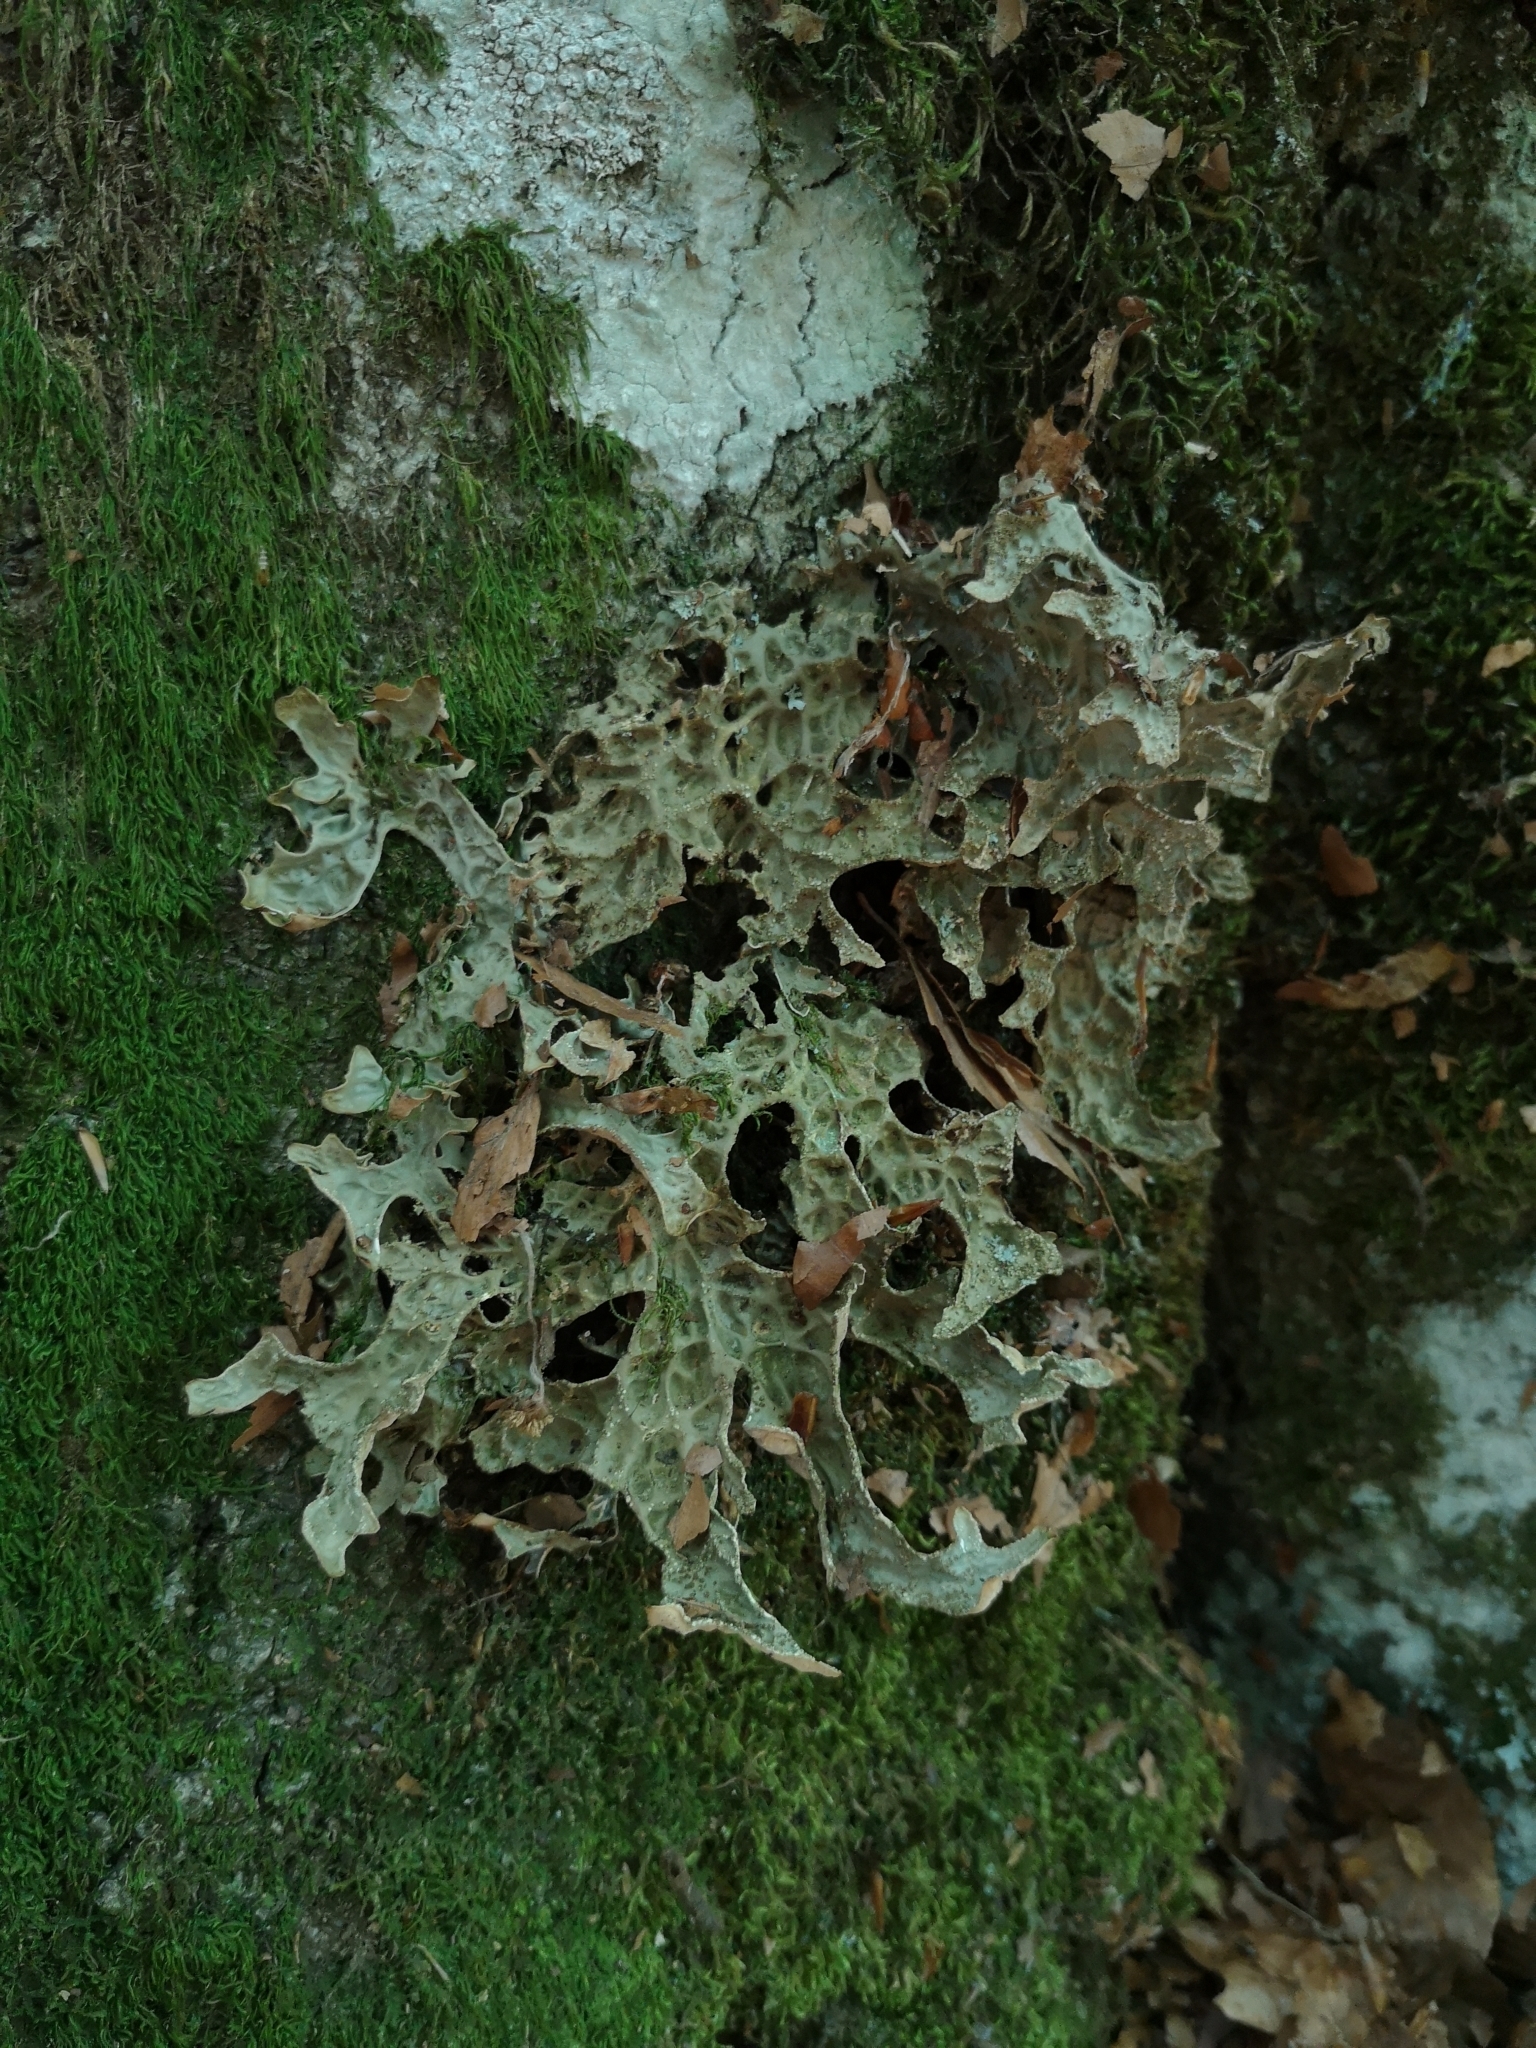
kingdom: Fungi
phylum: Ascomycota
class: Lecanoromycetes
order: Peltigerales
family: Lobariaceae
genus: Lobaria
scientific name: Lobaria pulmonaria
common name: Lungwort
